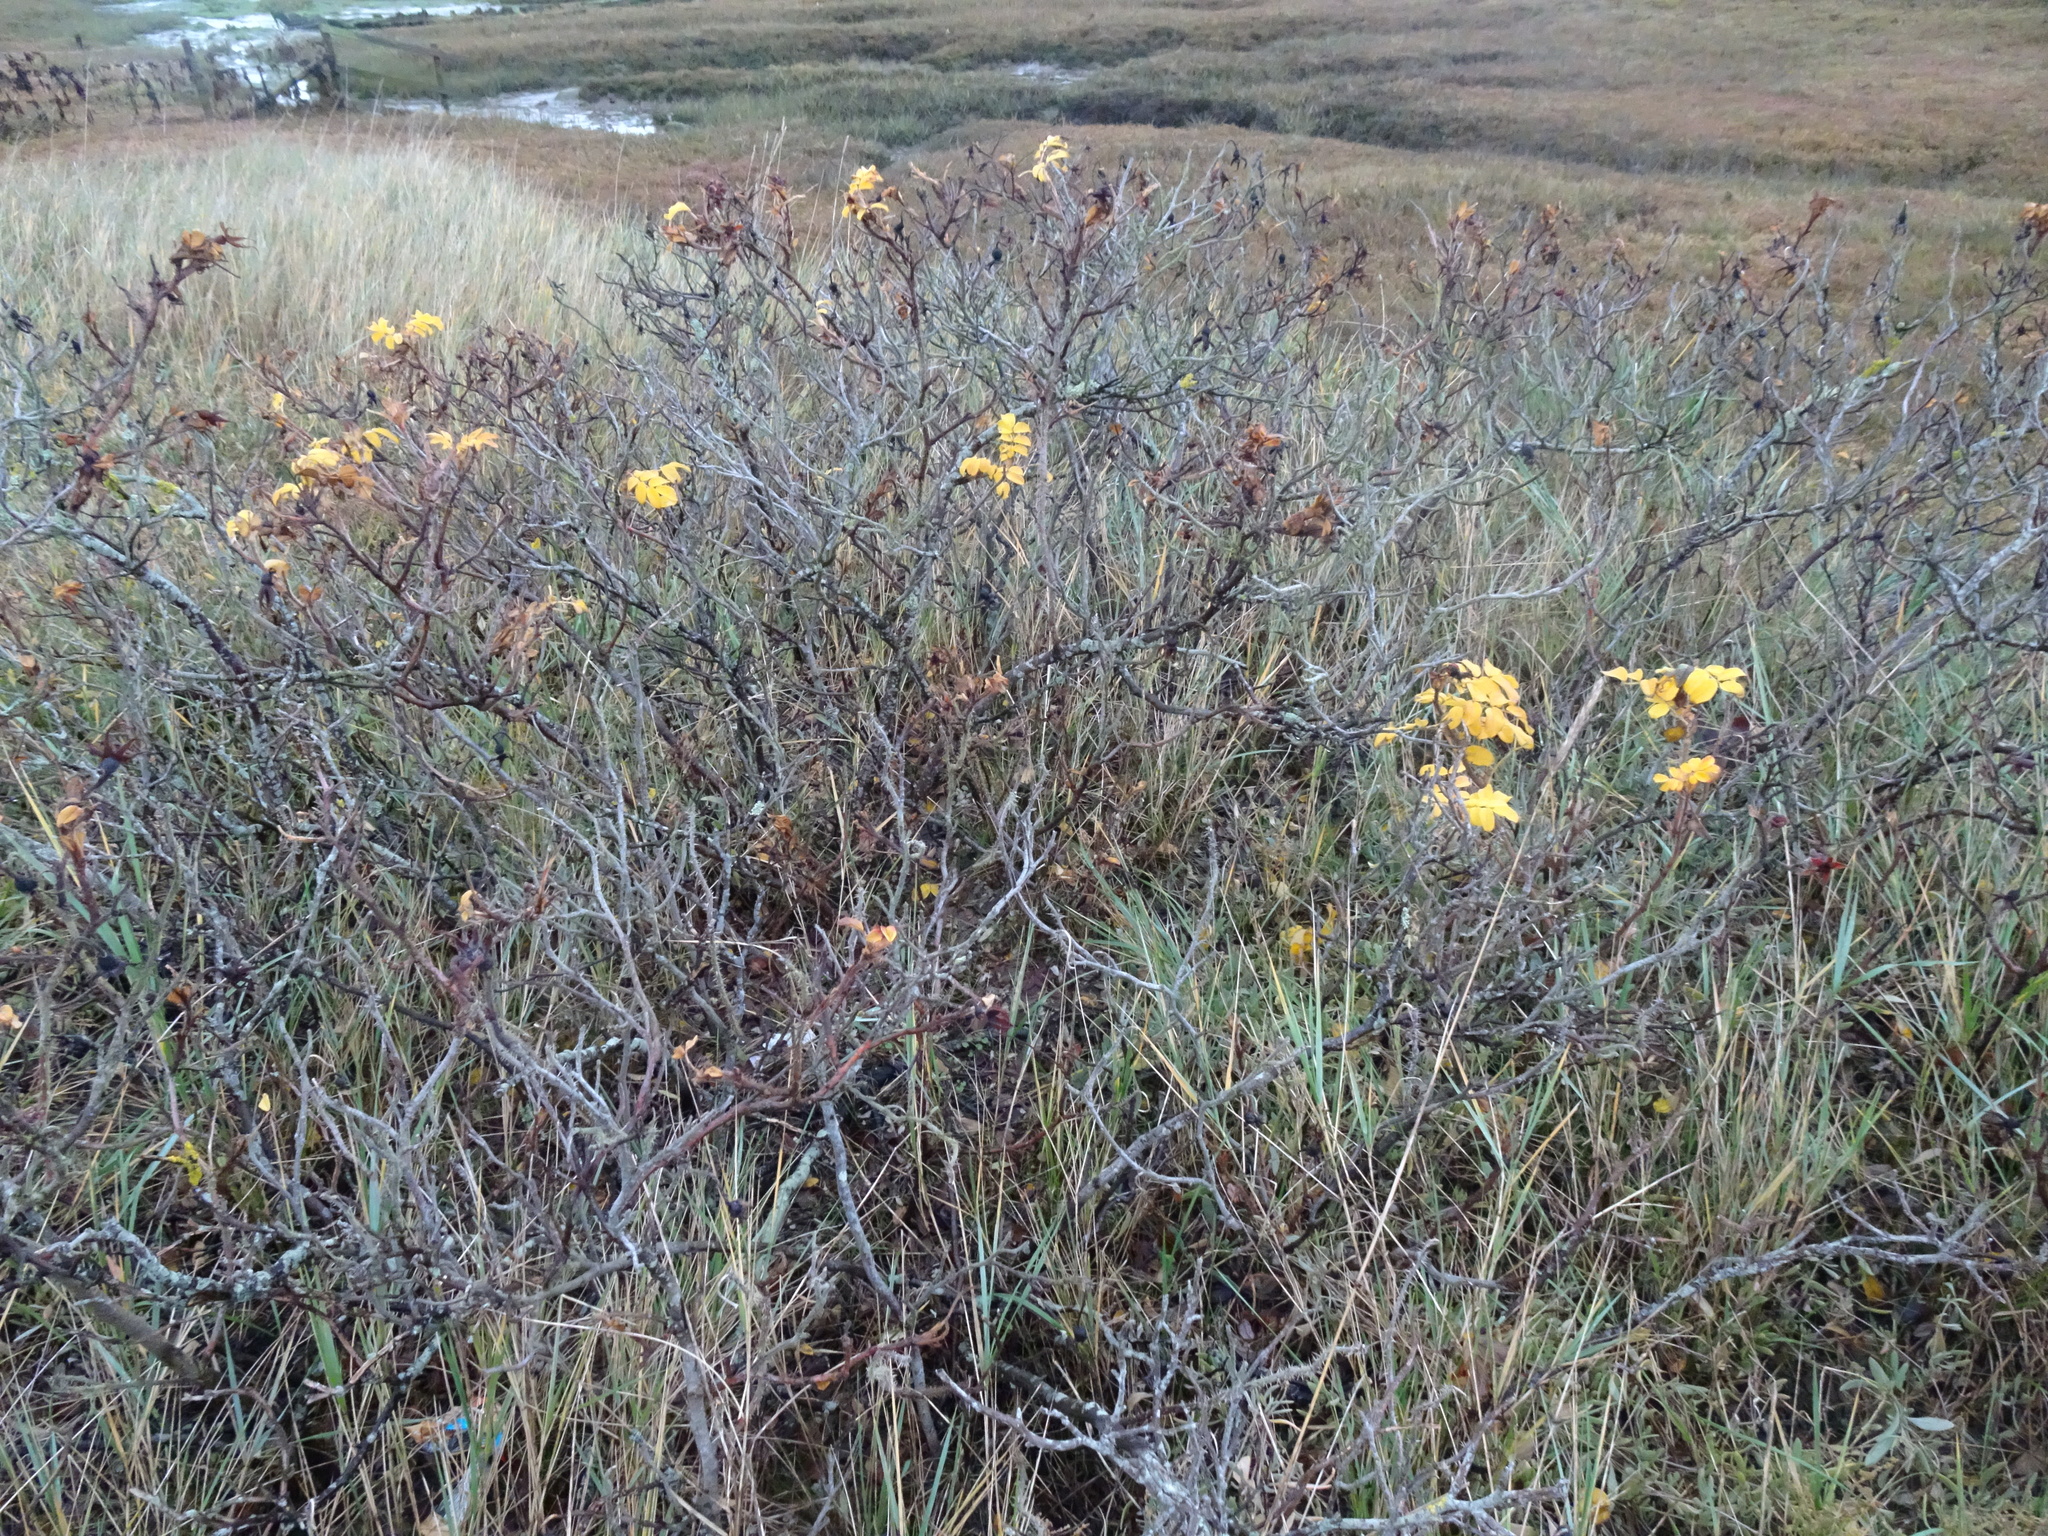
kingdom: Plantae
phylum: Tracheophyta
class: Magnoliopsida
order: Rosales
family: Rosaceae
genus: Rosa
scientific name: Rosa rugosa
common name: Japanese rose
